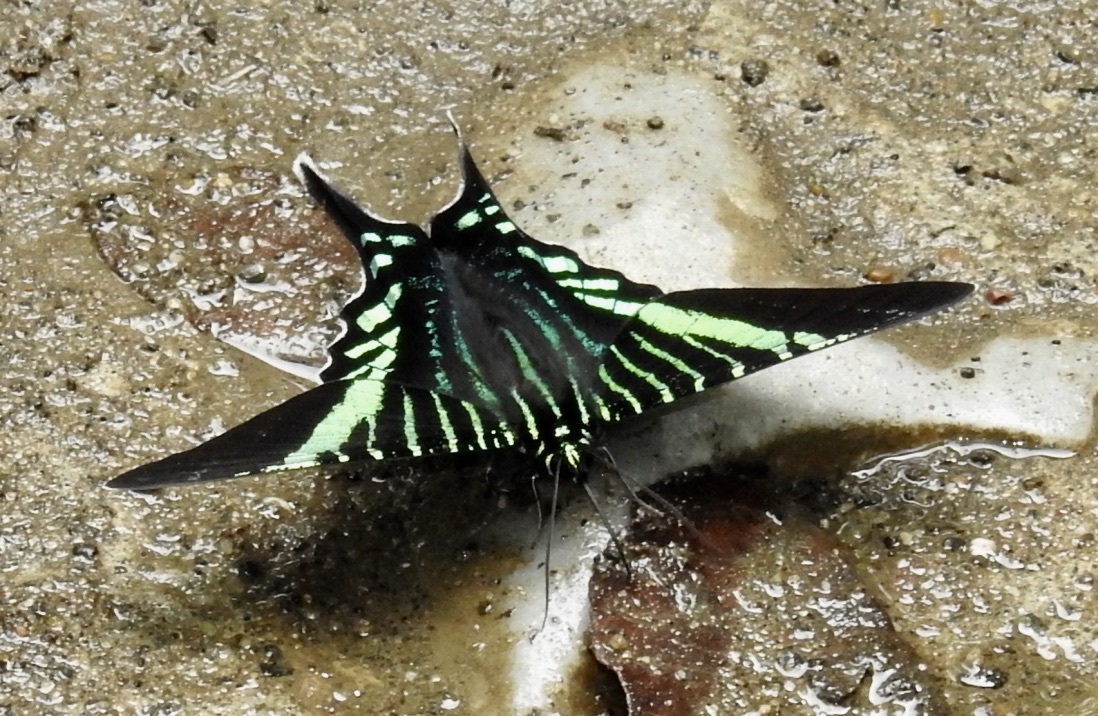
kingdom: Animalia
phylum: Arthropoda
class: Insecta
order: Lepidoptera
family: Uraniidae
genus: Urania
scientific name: Urania fulgens
